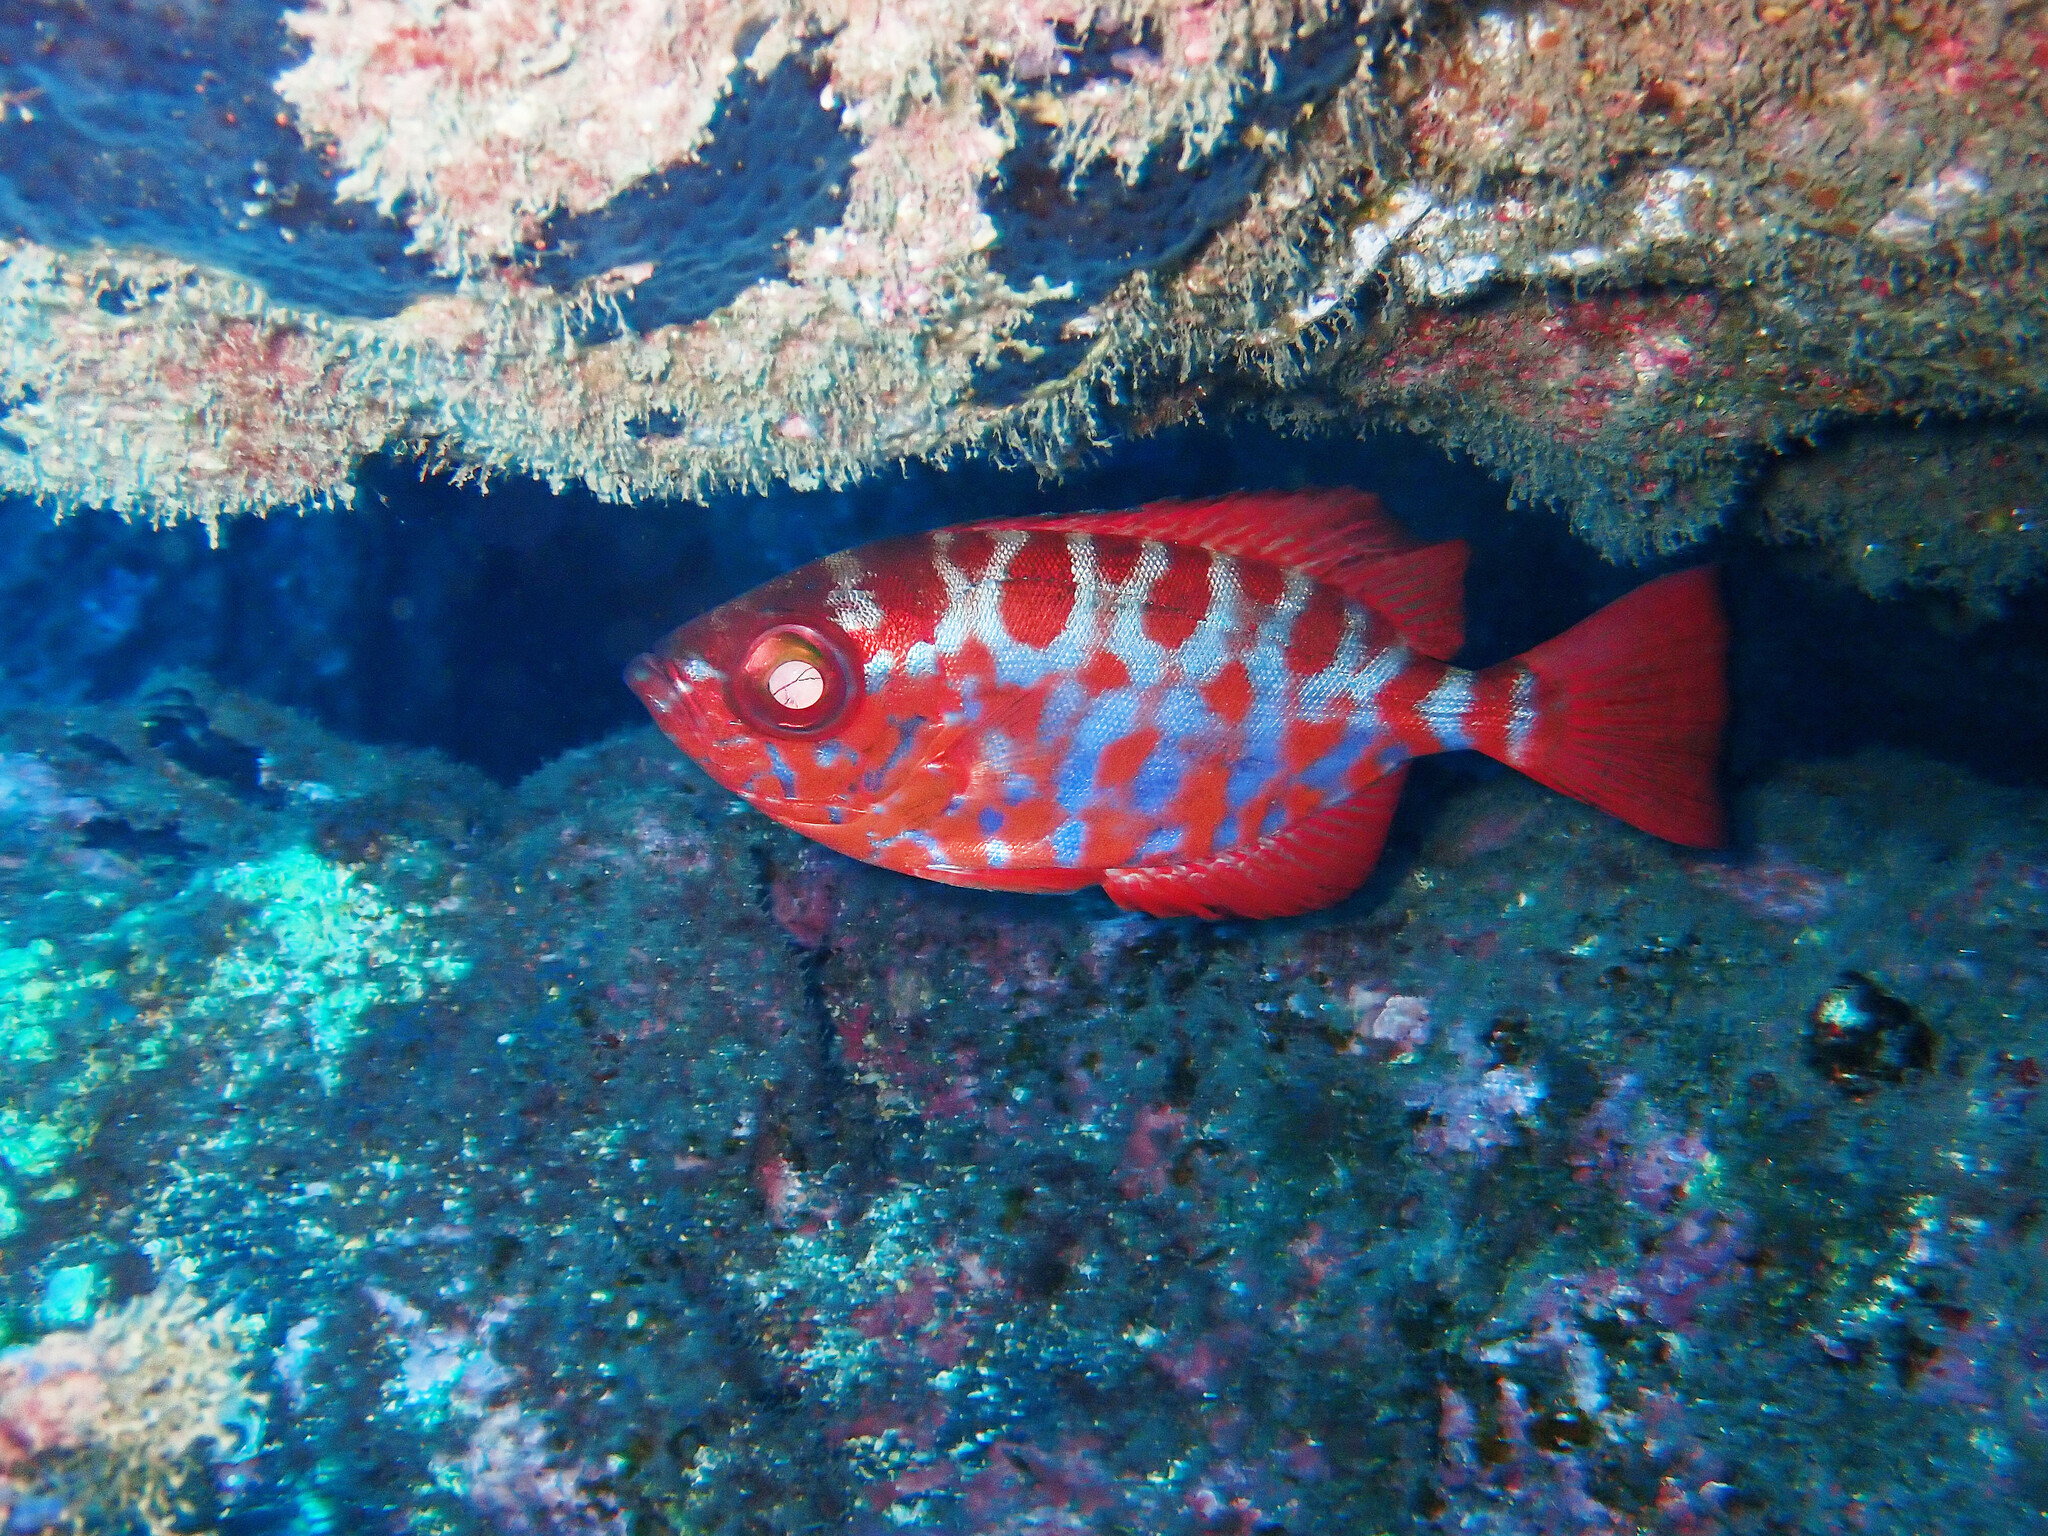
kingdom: Animalia
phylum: Chordata
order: Perciformes
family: Priacanthidae
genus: Heteropriacanthus
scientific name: Heteropriacanthus fulgens
